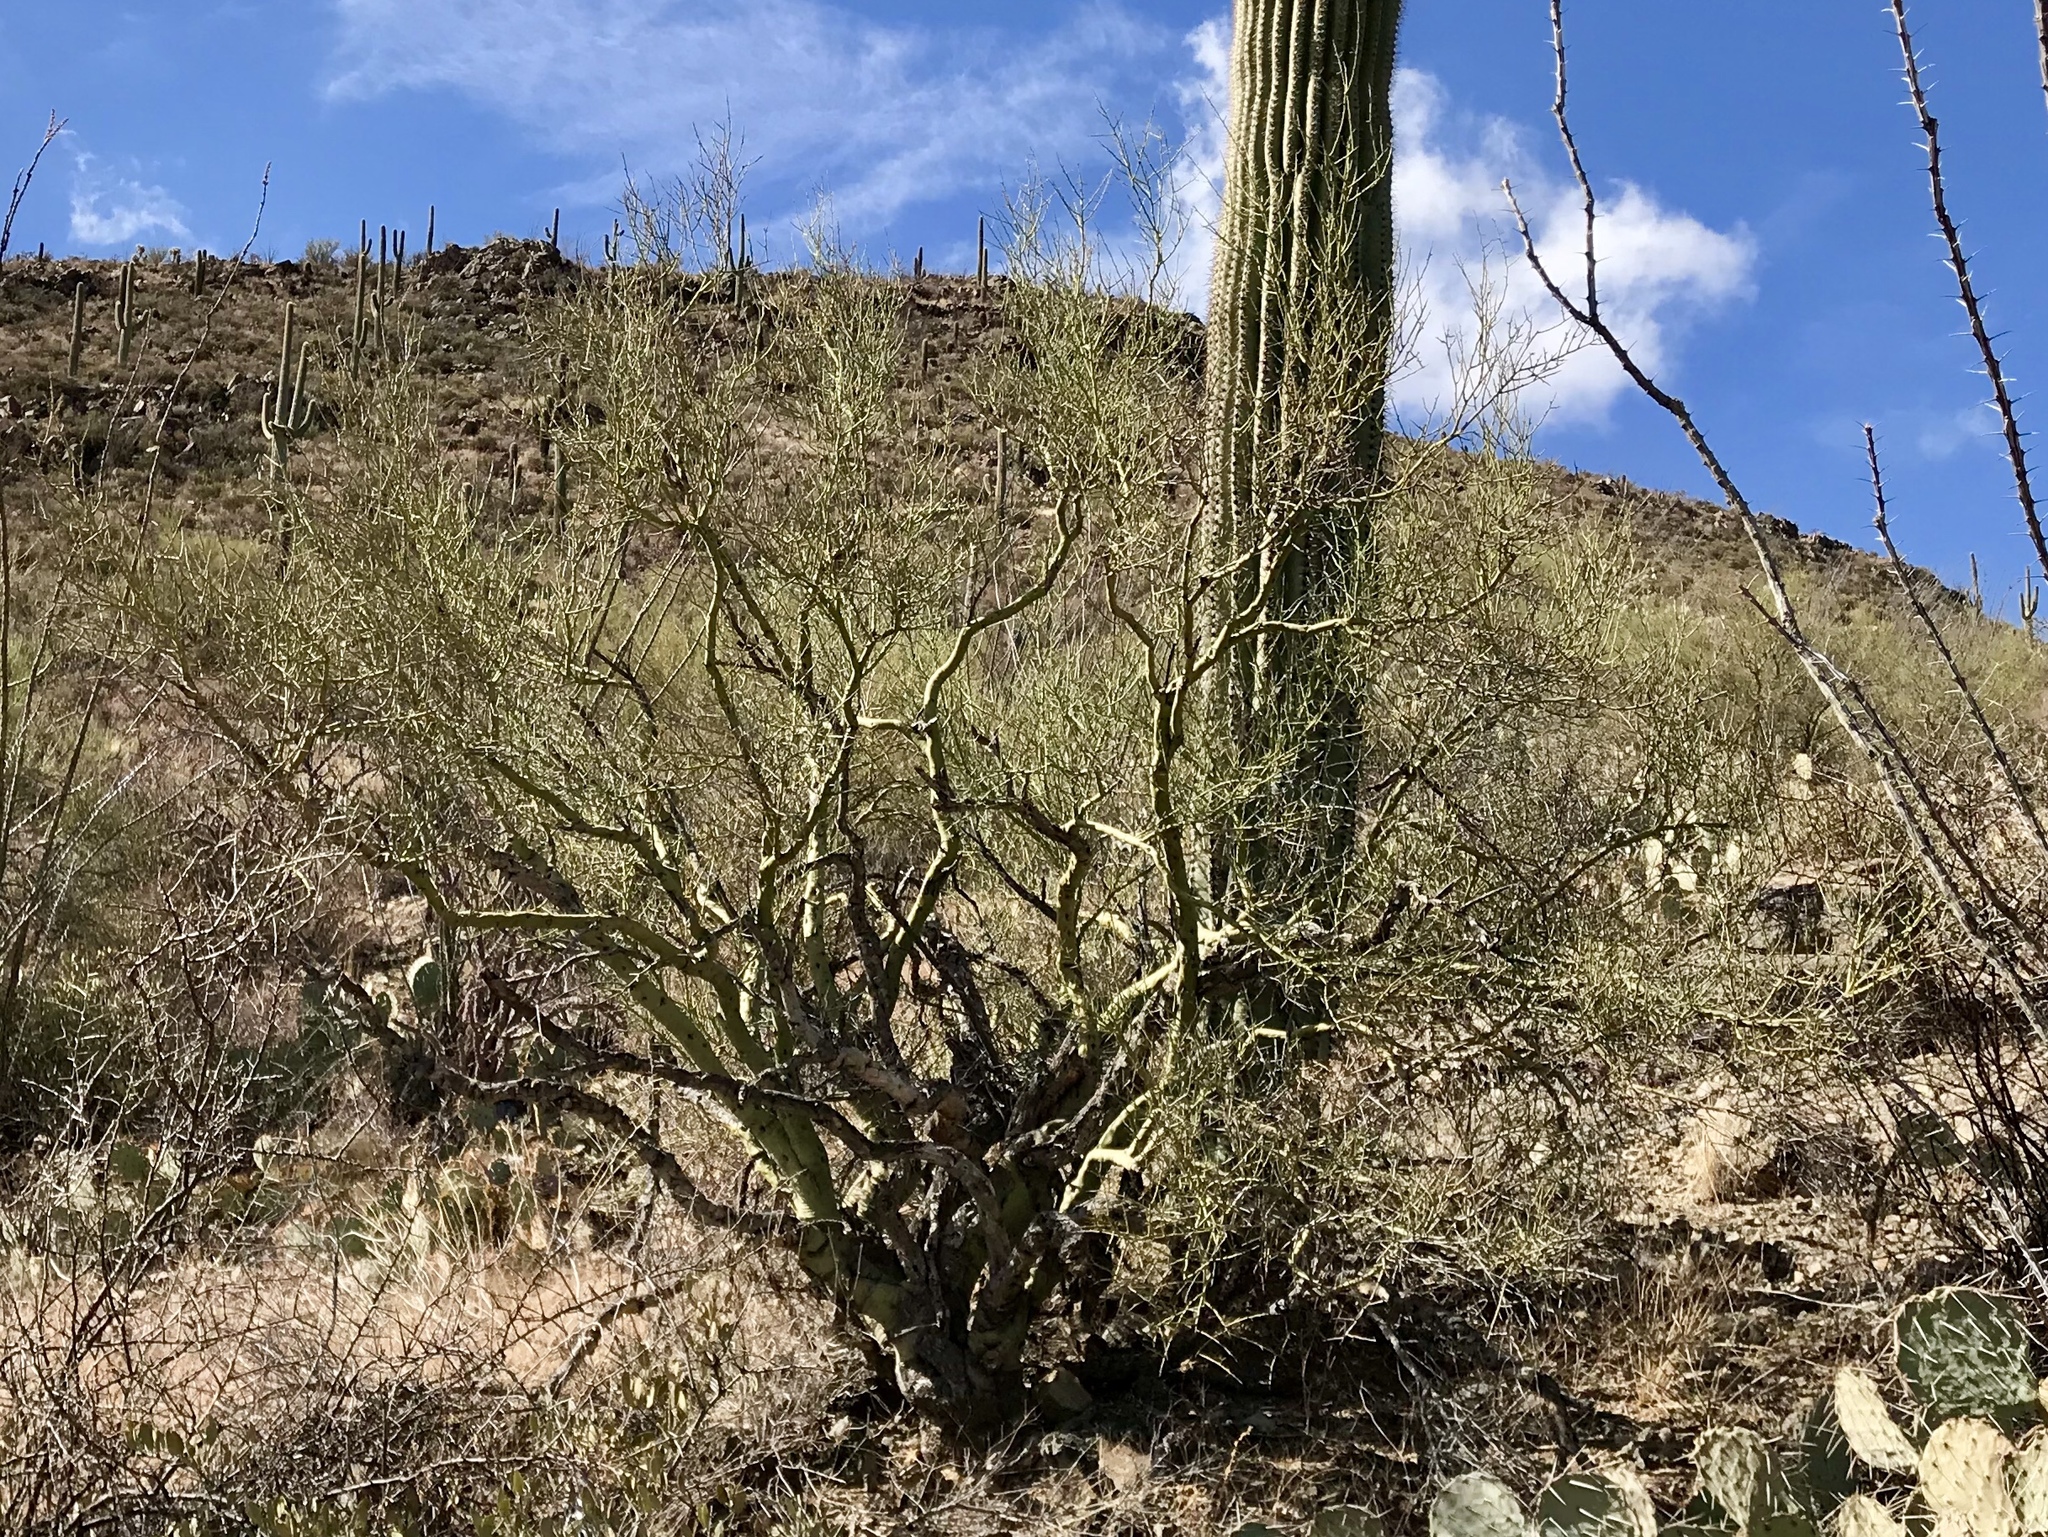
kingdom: Plantae
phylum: Tracheophyta
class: Magnoliopsida
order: Fabales
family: Fabaceae
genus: Parkinsonia
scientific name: Parkinsonia microphylla
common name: Yellow paloverde
